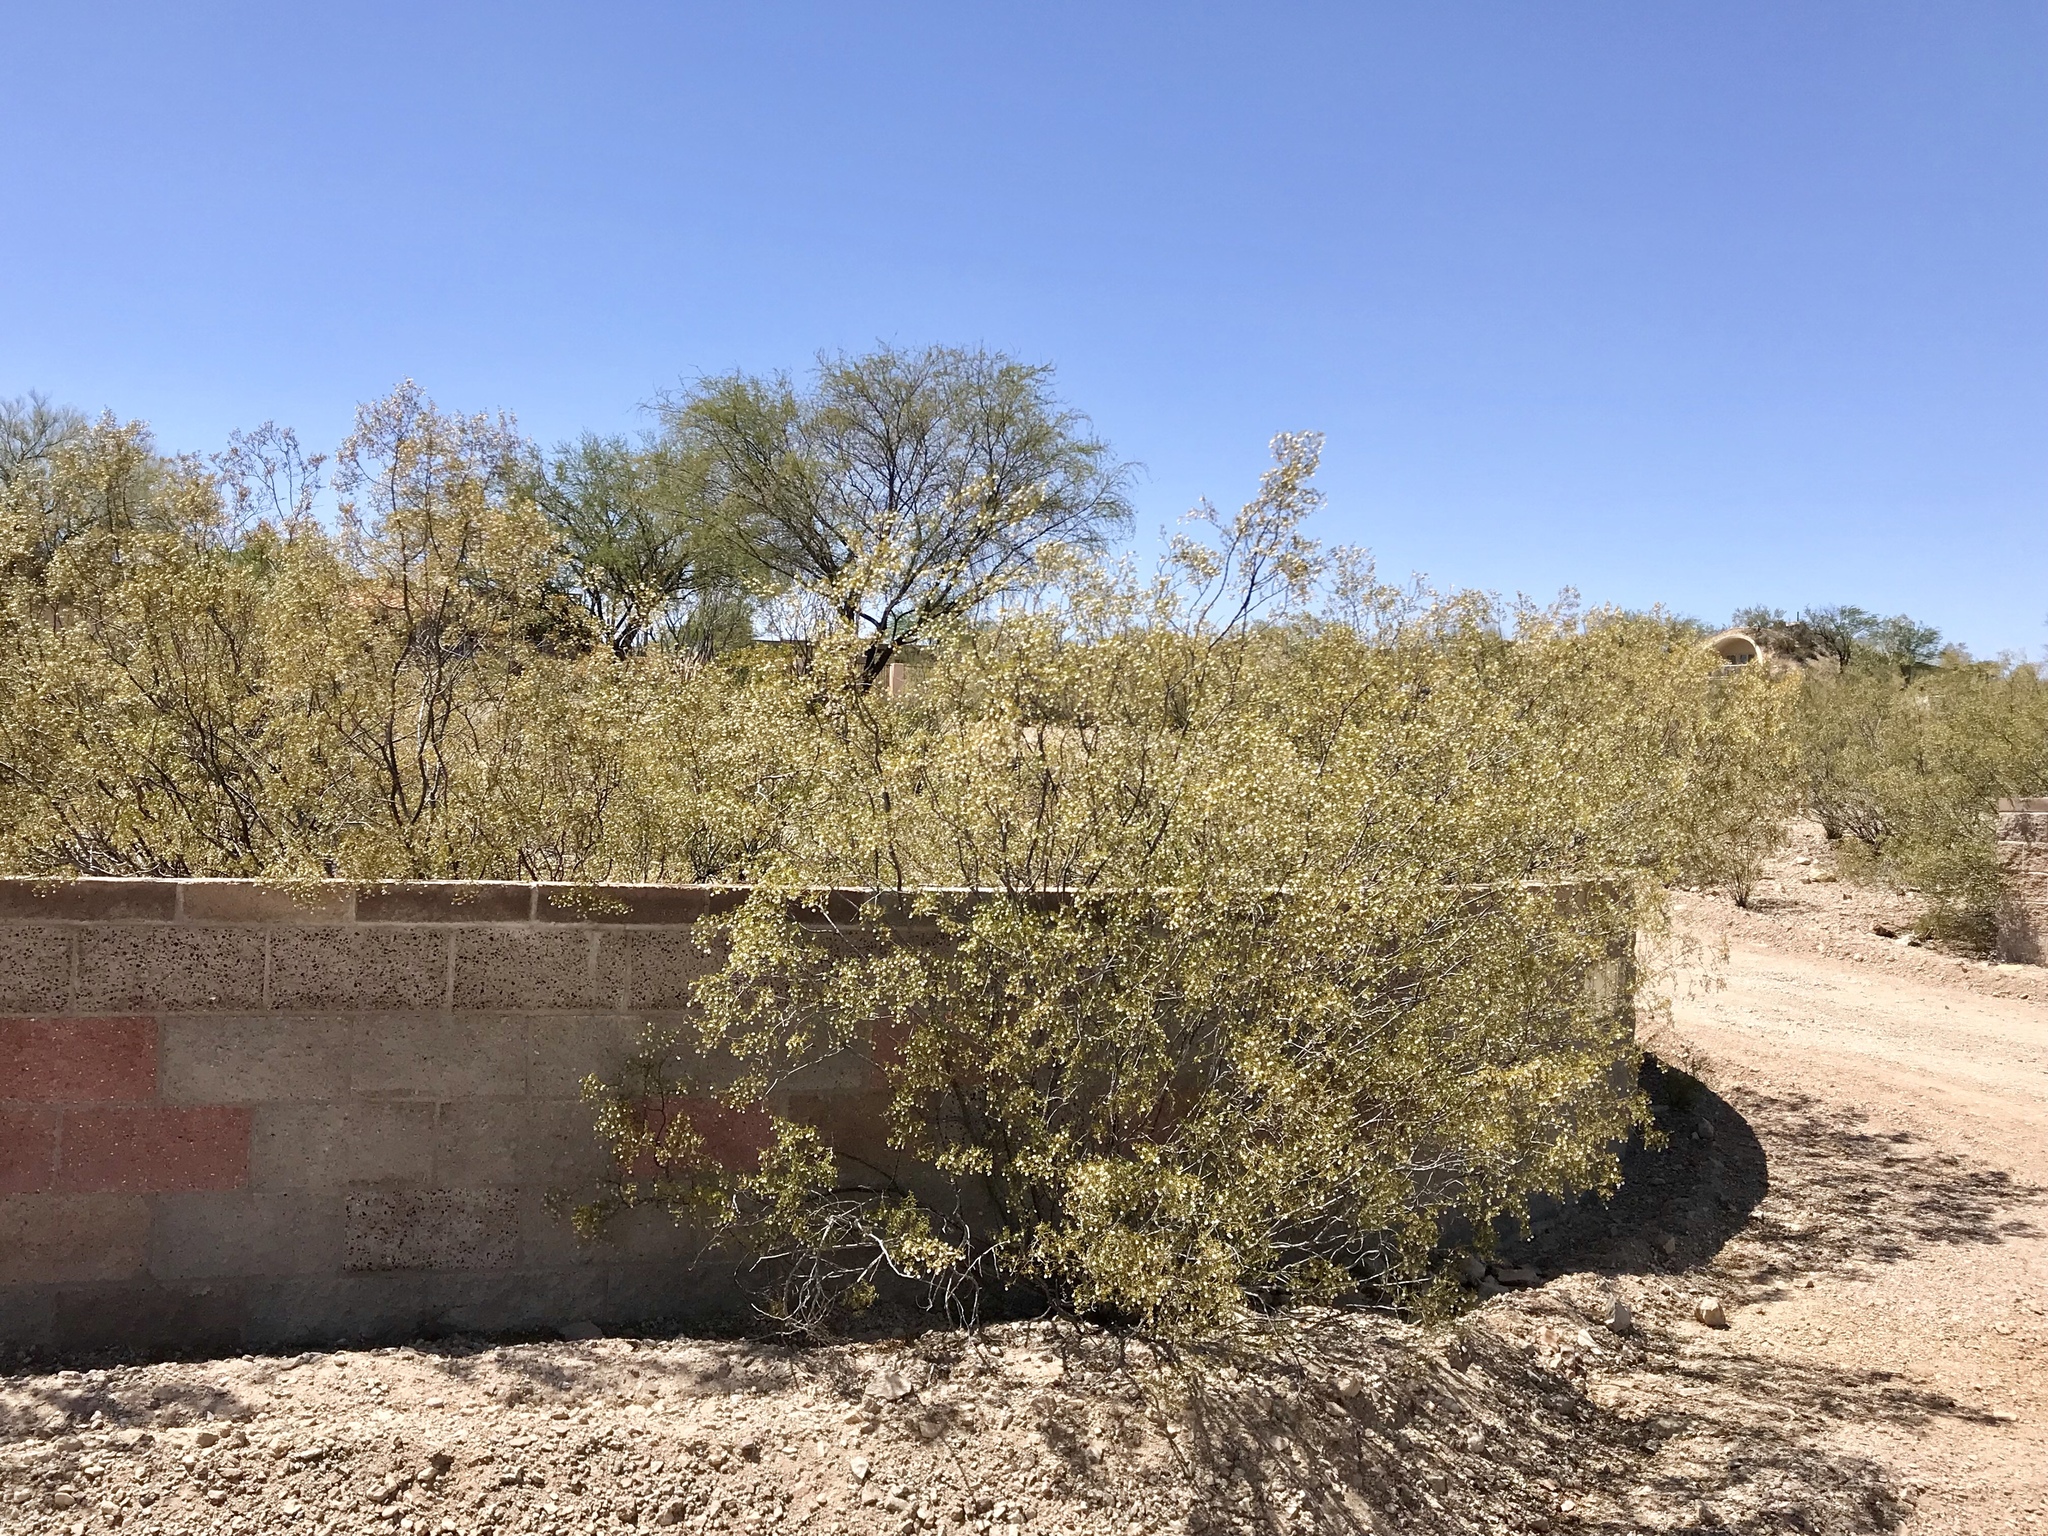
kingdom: Plantae
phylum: Tracheophyta
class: Magnoliopsida
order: Zygophyllales
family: Zygophyllaceae
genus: Larrea
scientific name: Larrea tridentata
